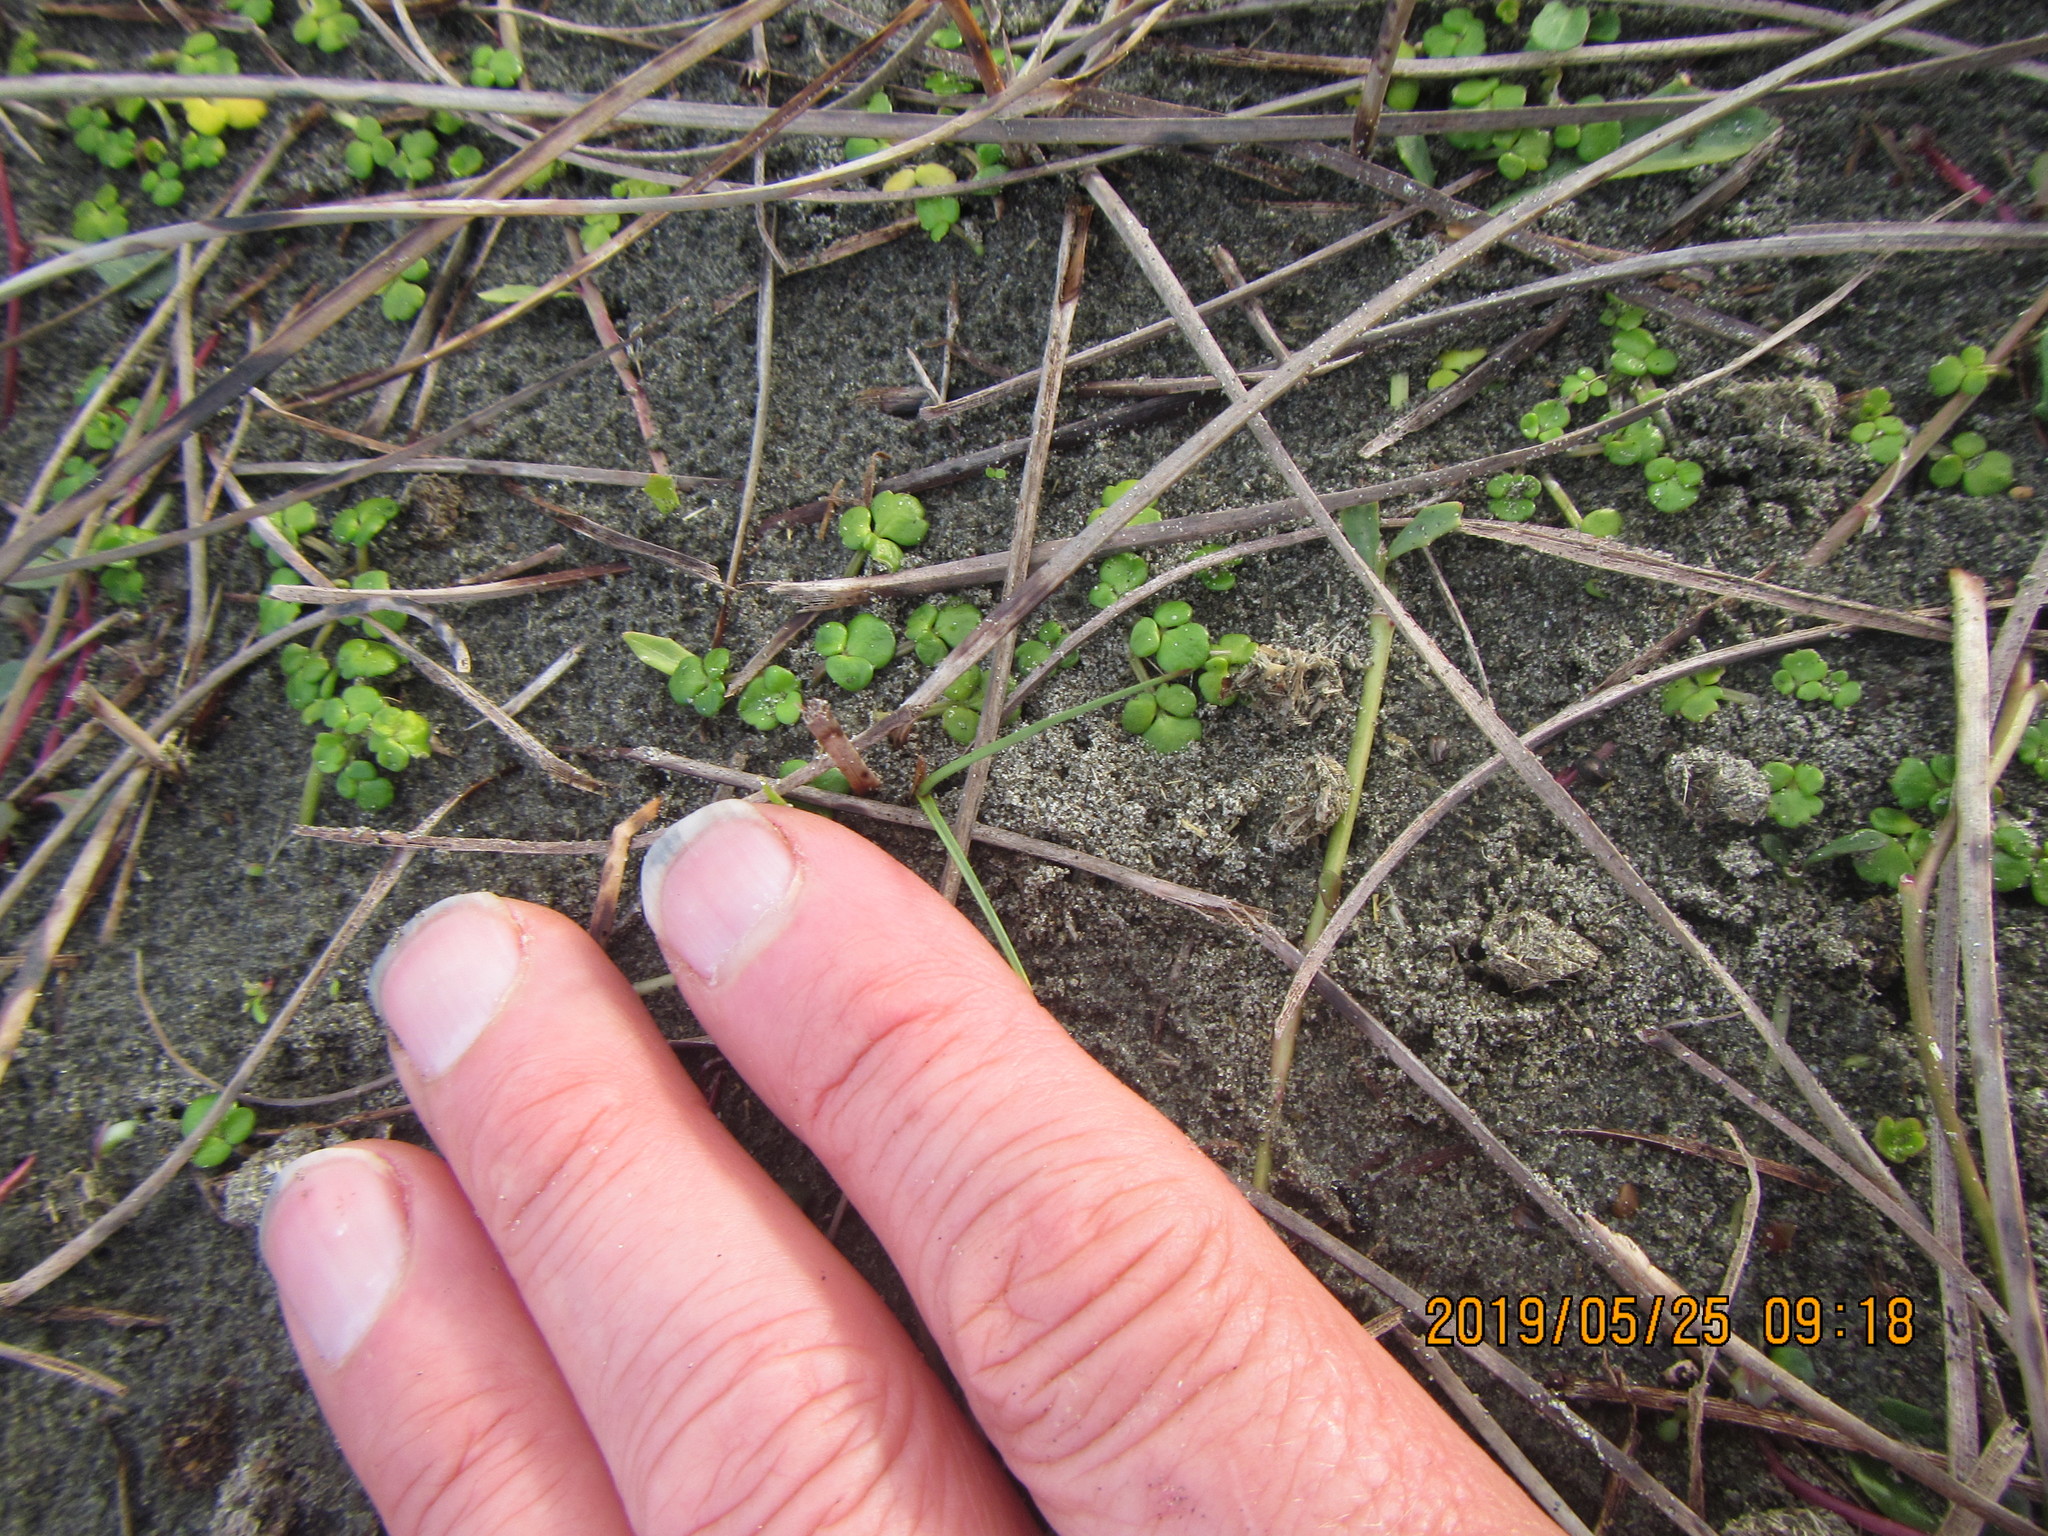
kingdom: Plantae
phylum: Tracheophyta
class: Magnoliopsida
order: Ranunculales
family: Ranunculaceae
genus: Ranunculus
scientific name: Ranunculus acaulis
